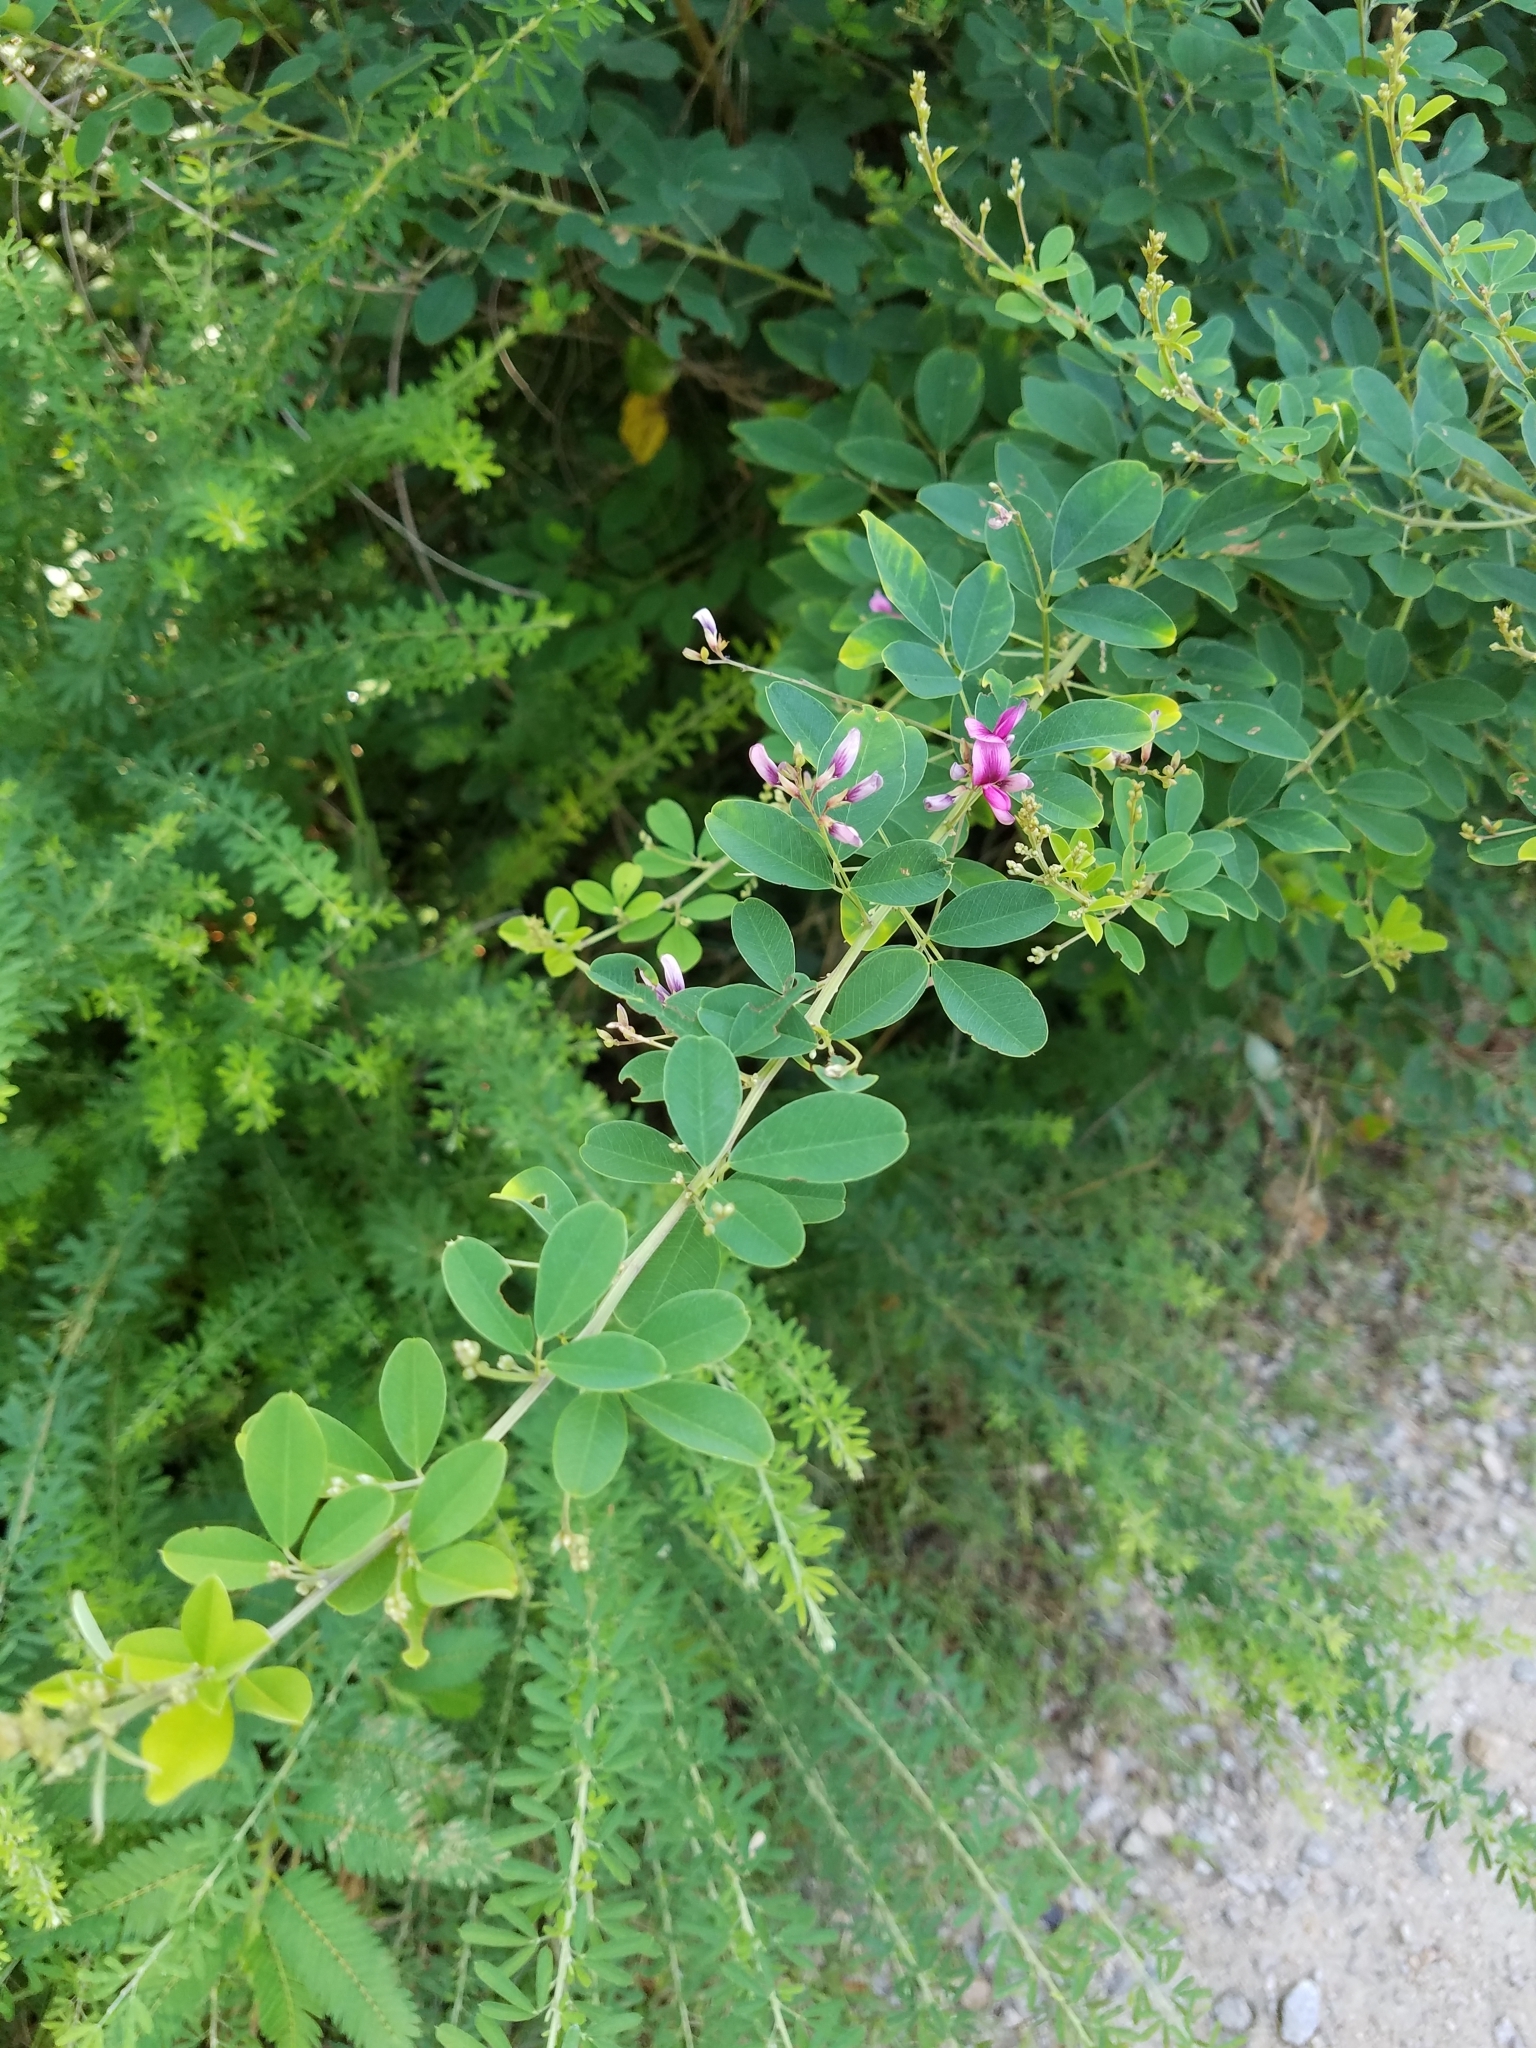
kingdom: Plantae
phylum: Tracheophyta
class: Magnoliopsida
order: Fabales
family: Fabaceae
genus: Lespedeza
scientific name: Lespedeza bicolor
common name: Shrub lespedeza
